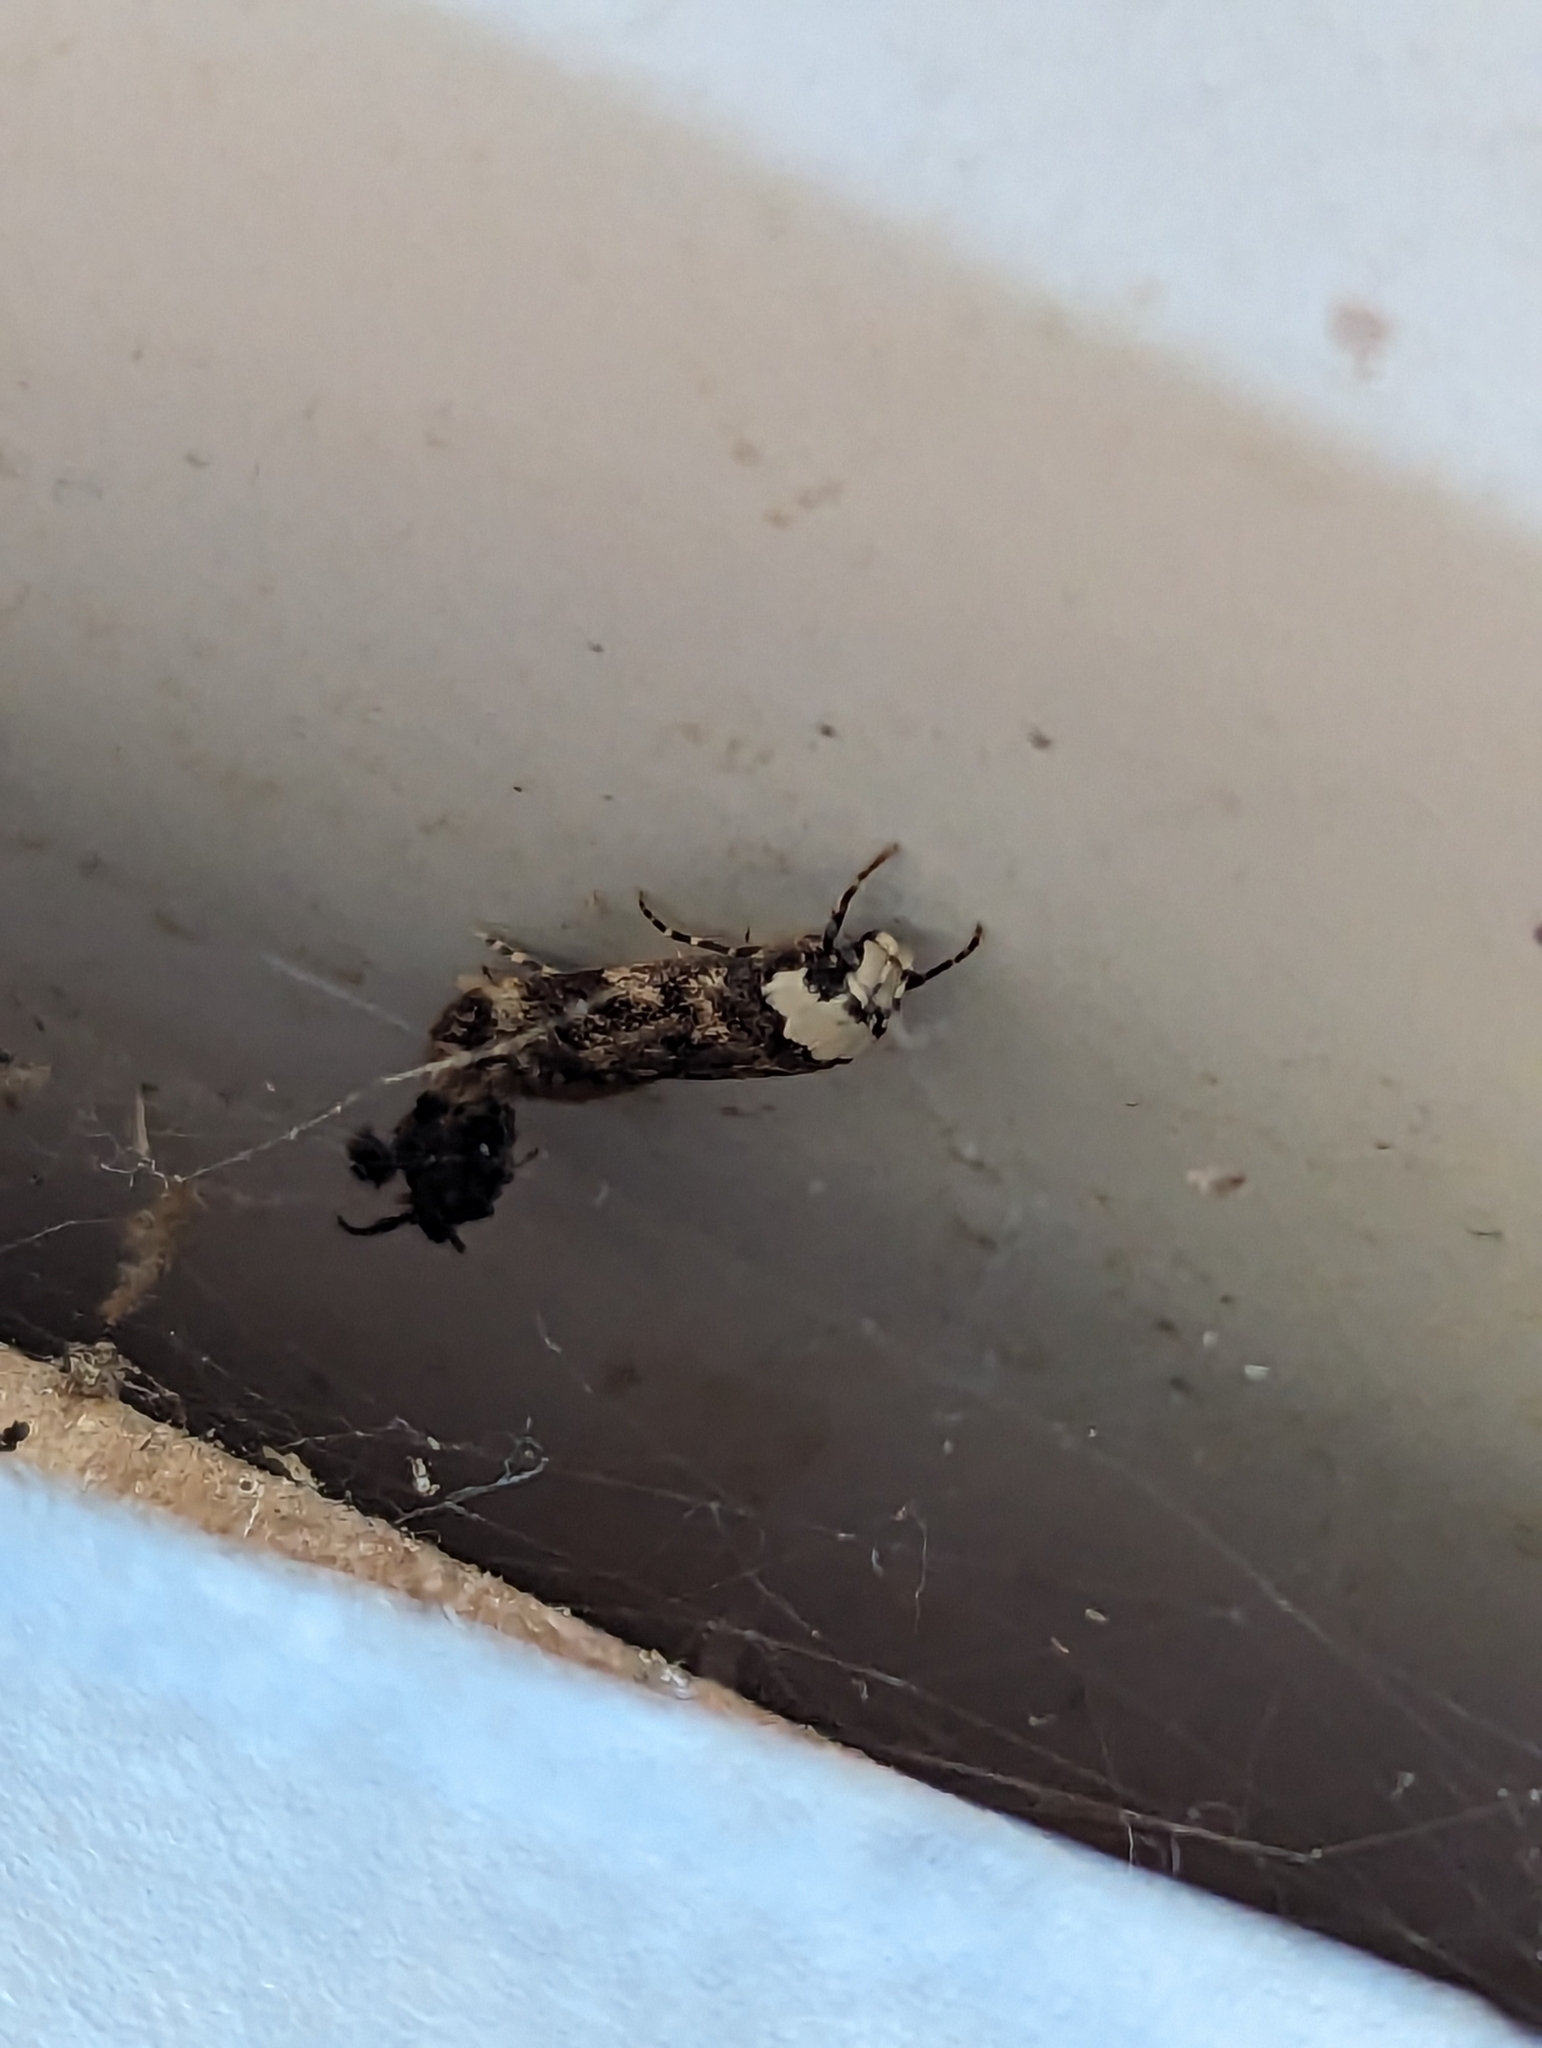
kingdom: Animalia
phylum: Arthropoda
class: Insecta
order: Lepidoptera
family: Oecophoridae
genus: Endrosis
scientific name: Endrosis sarcitrella
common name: White-shouldered house moth
